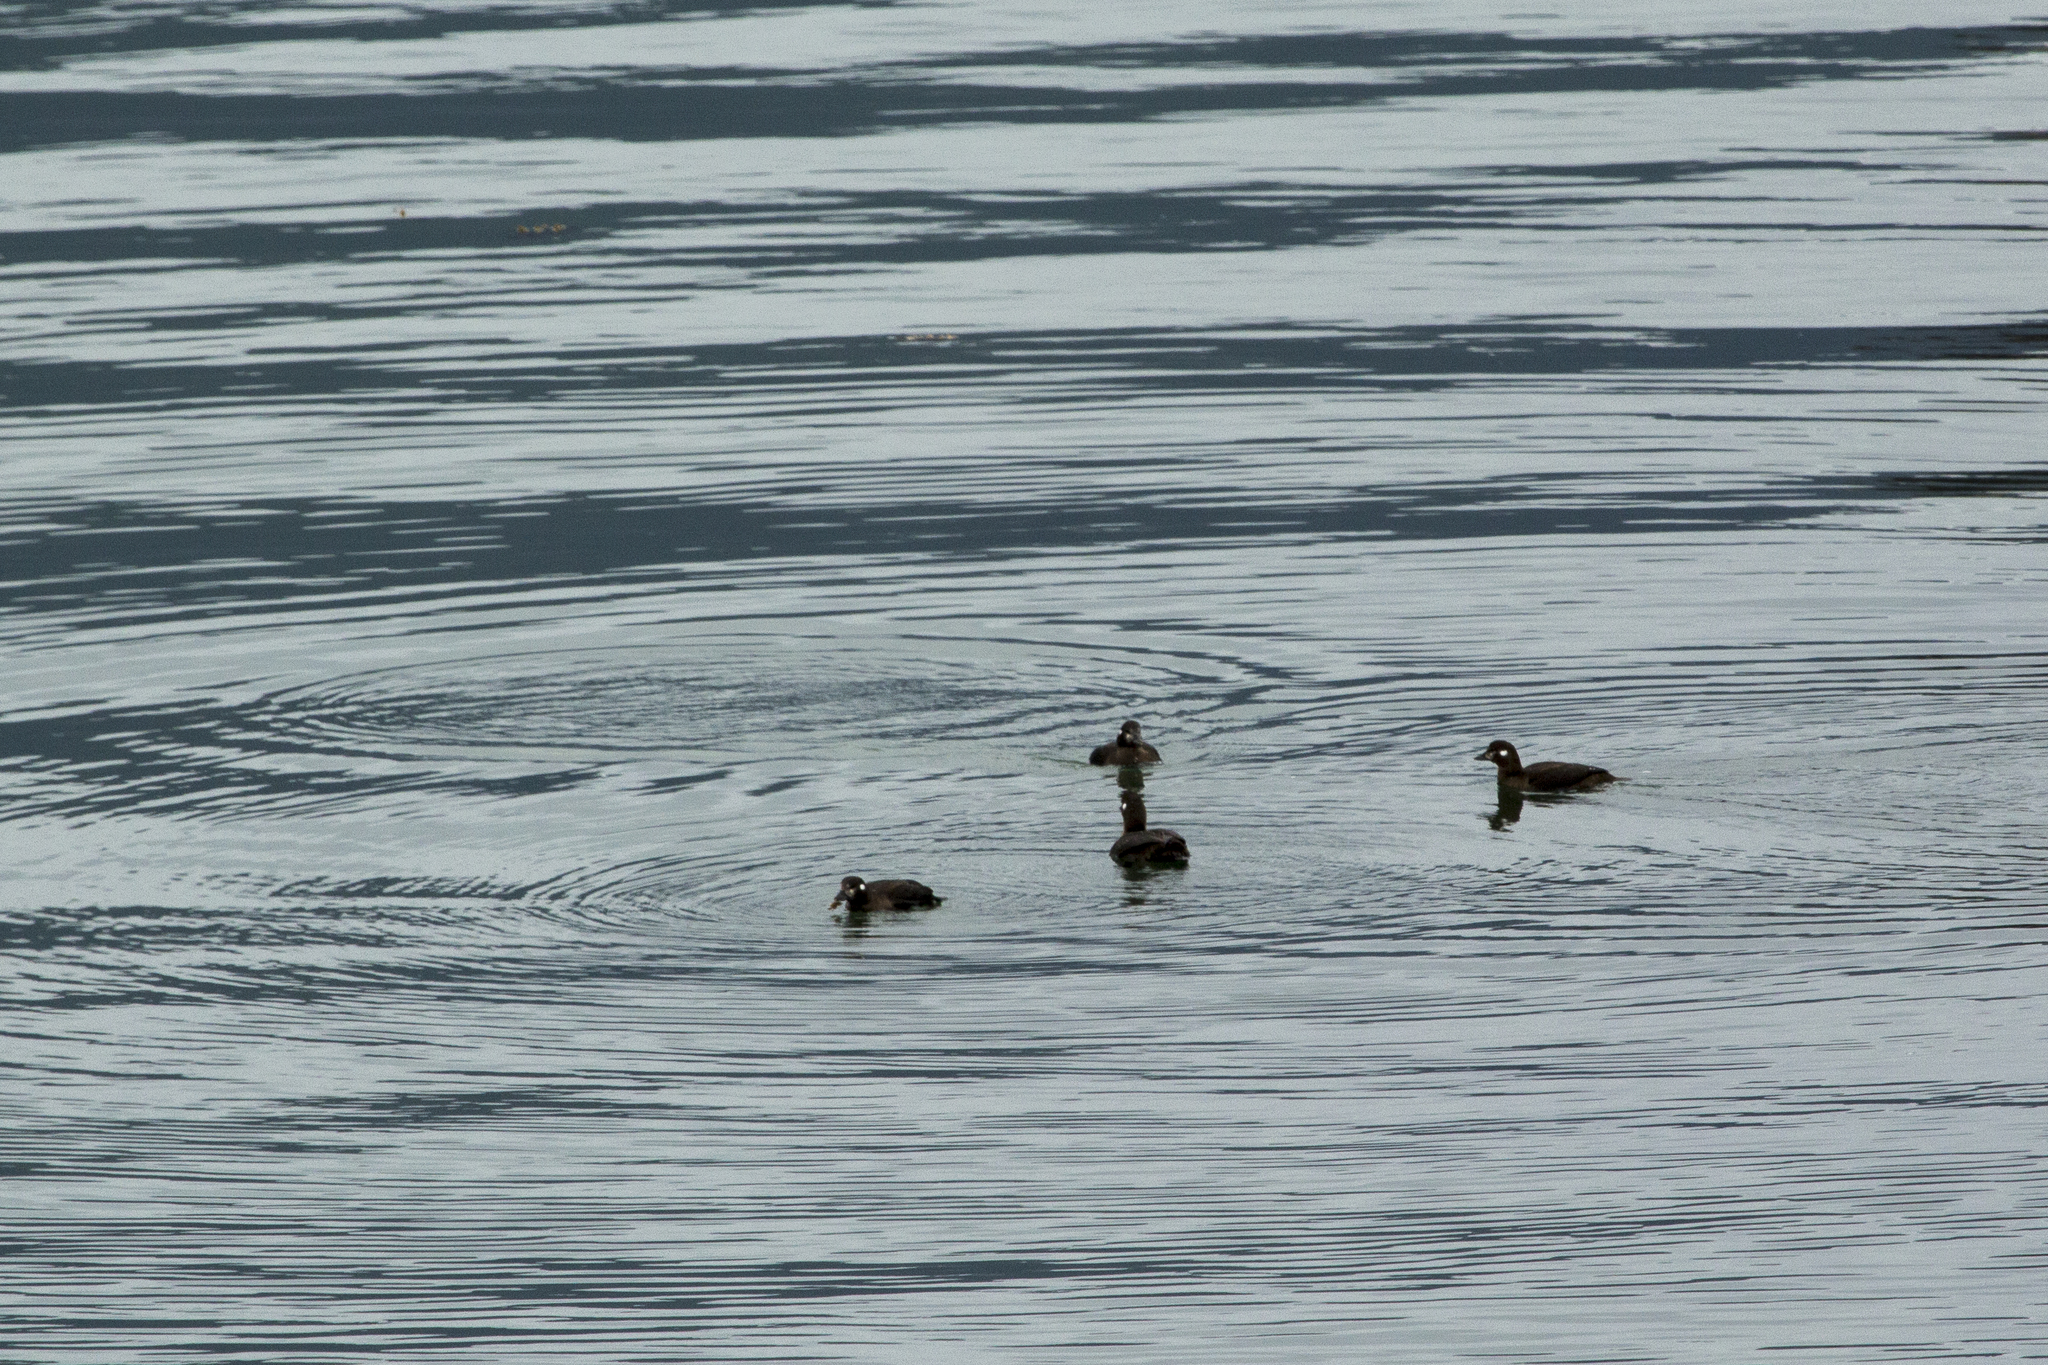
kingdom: Animalia
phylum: Chordata
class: Aves
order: Anseriformes
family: Anatidae
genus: Histrionicus
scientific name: Histrionicus histrionicus
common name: Harlequin duck
